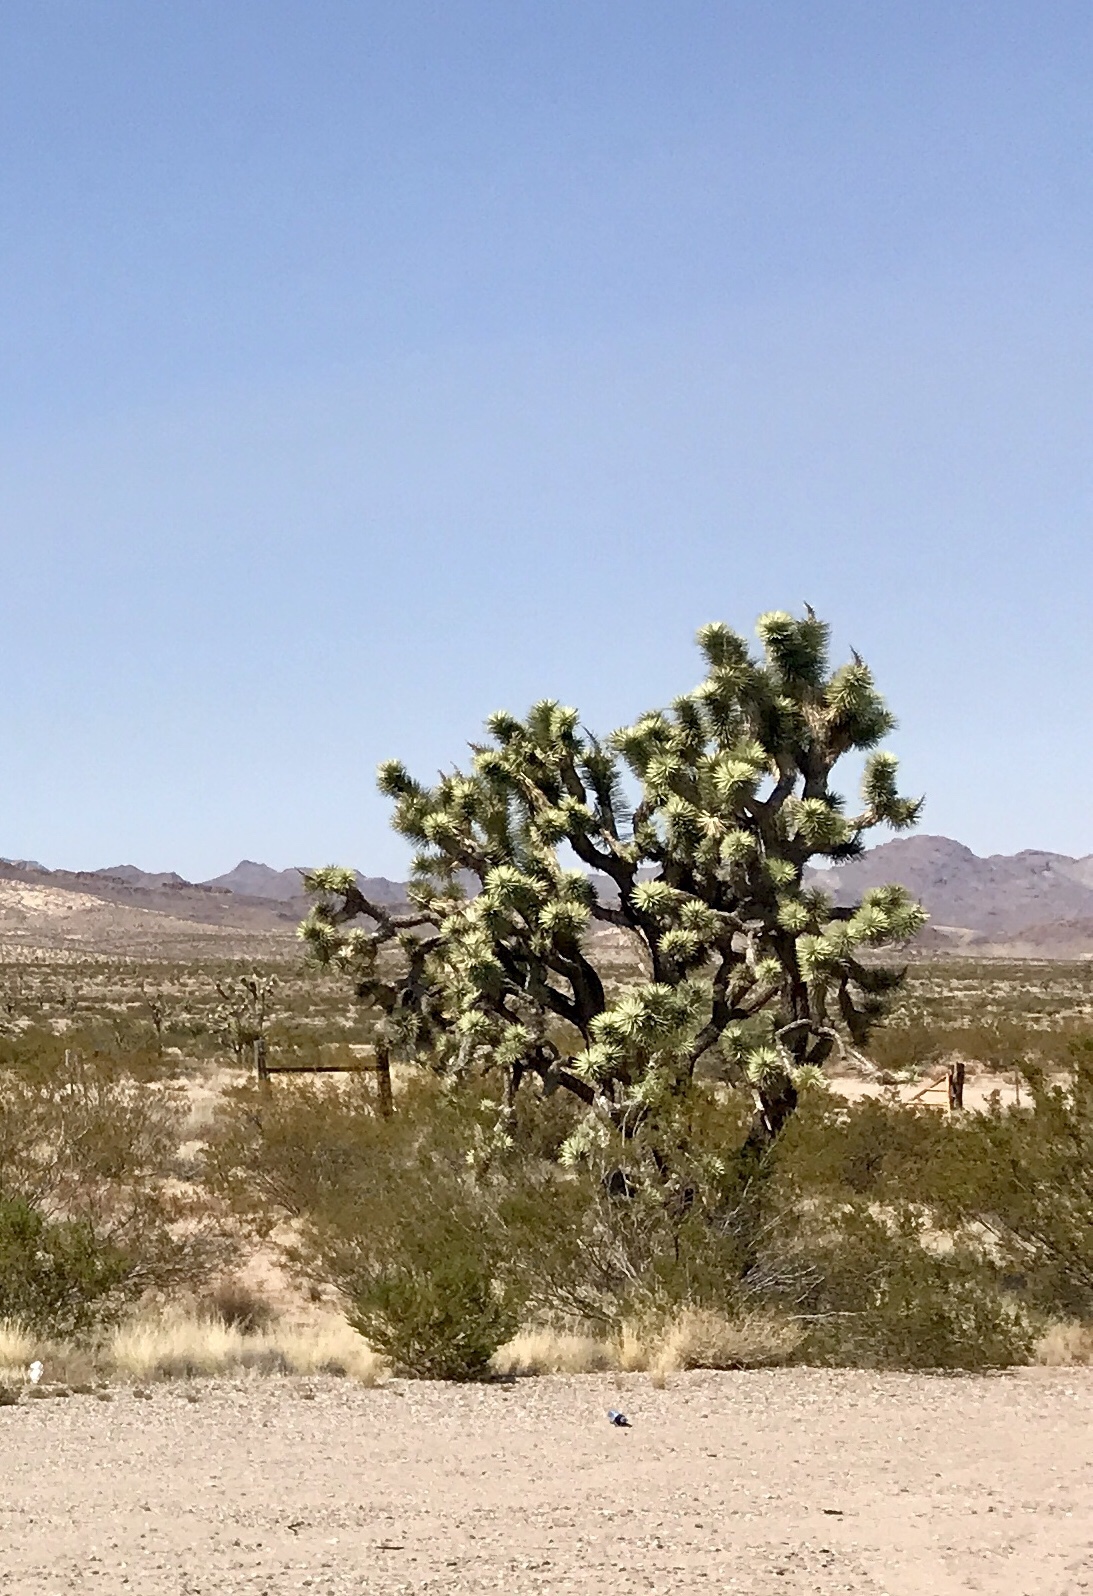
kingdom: Plantae
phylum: Tracheophyta
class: Liliopsida
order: Asparagales
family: Asparagaceae
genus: Yucca
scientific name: Yucca brevifolia
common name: Joshua tree
